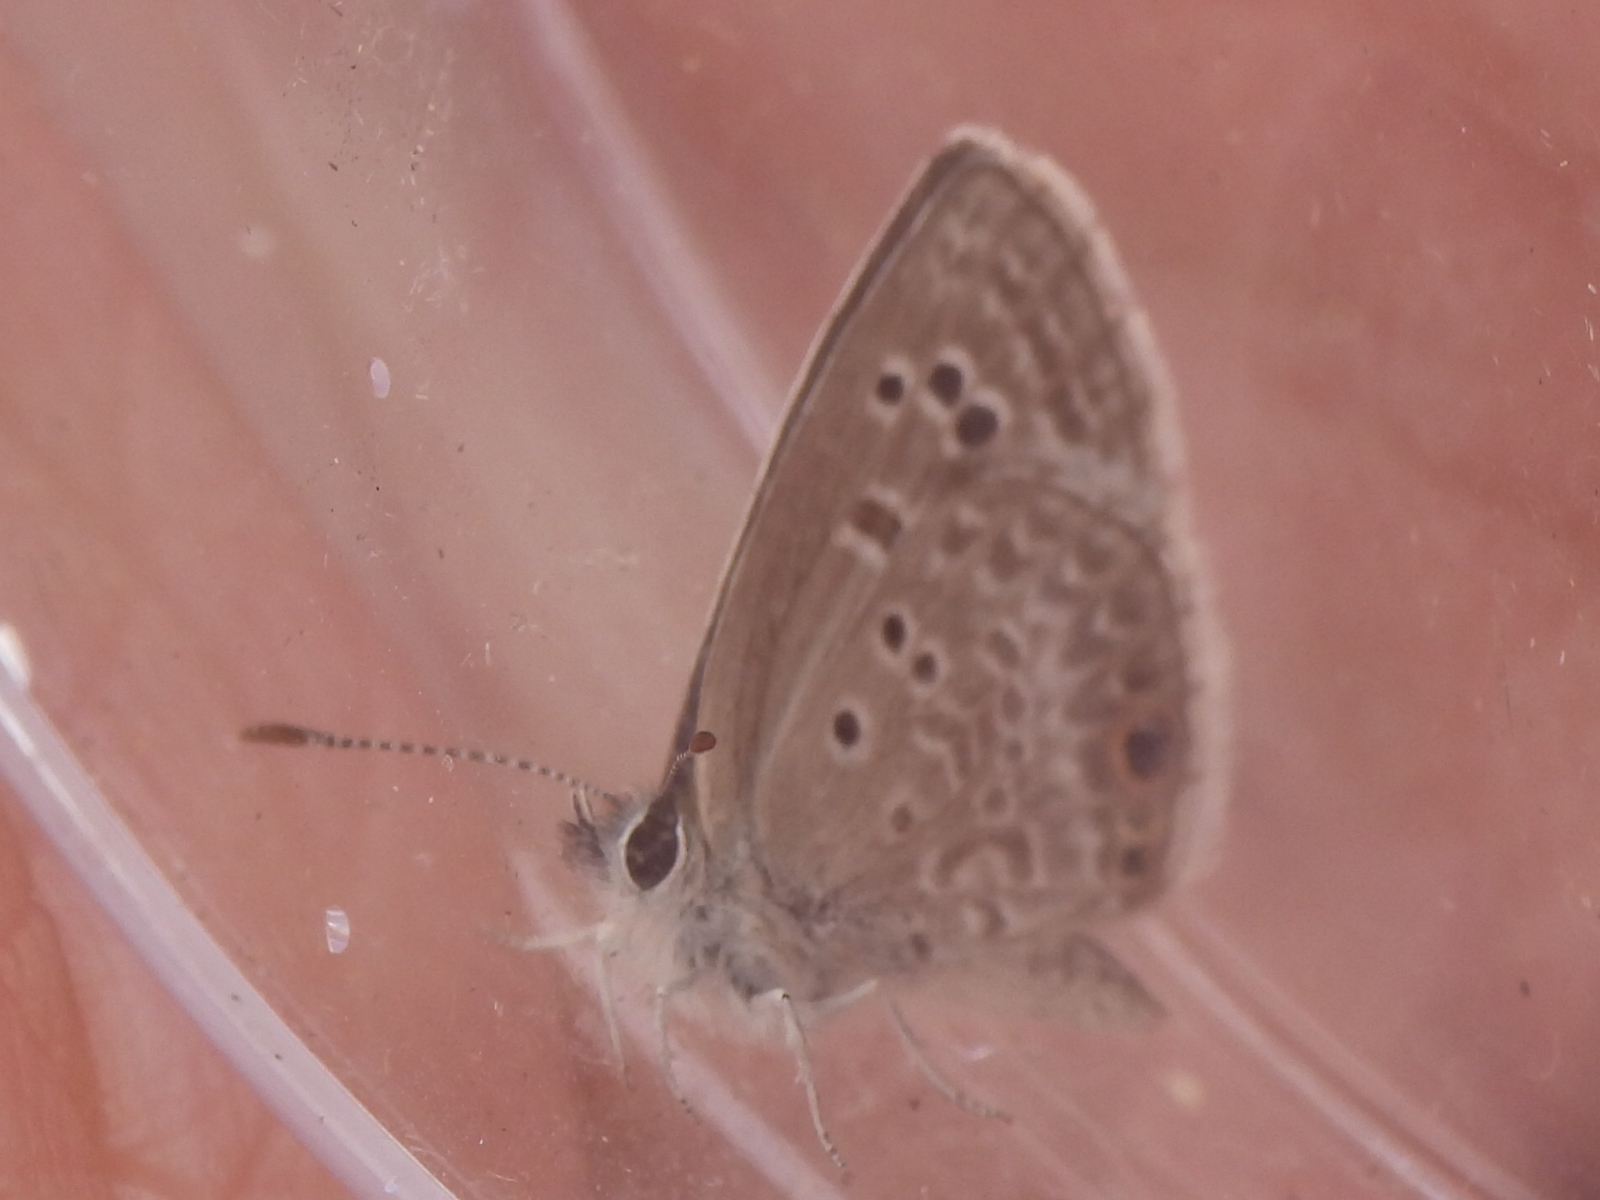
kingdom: Animalia
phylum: Arthropoda
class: Insecta
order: Lepidoptera
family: Lycaenidae
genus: Echinargus
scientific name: Echinargus isola
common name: Reakirt's blue
